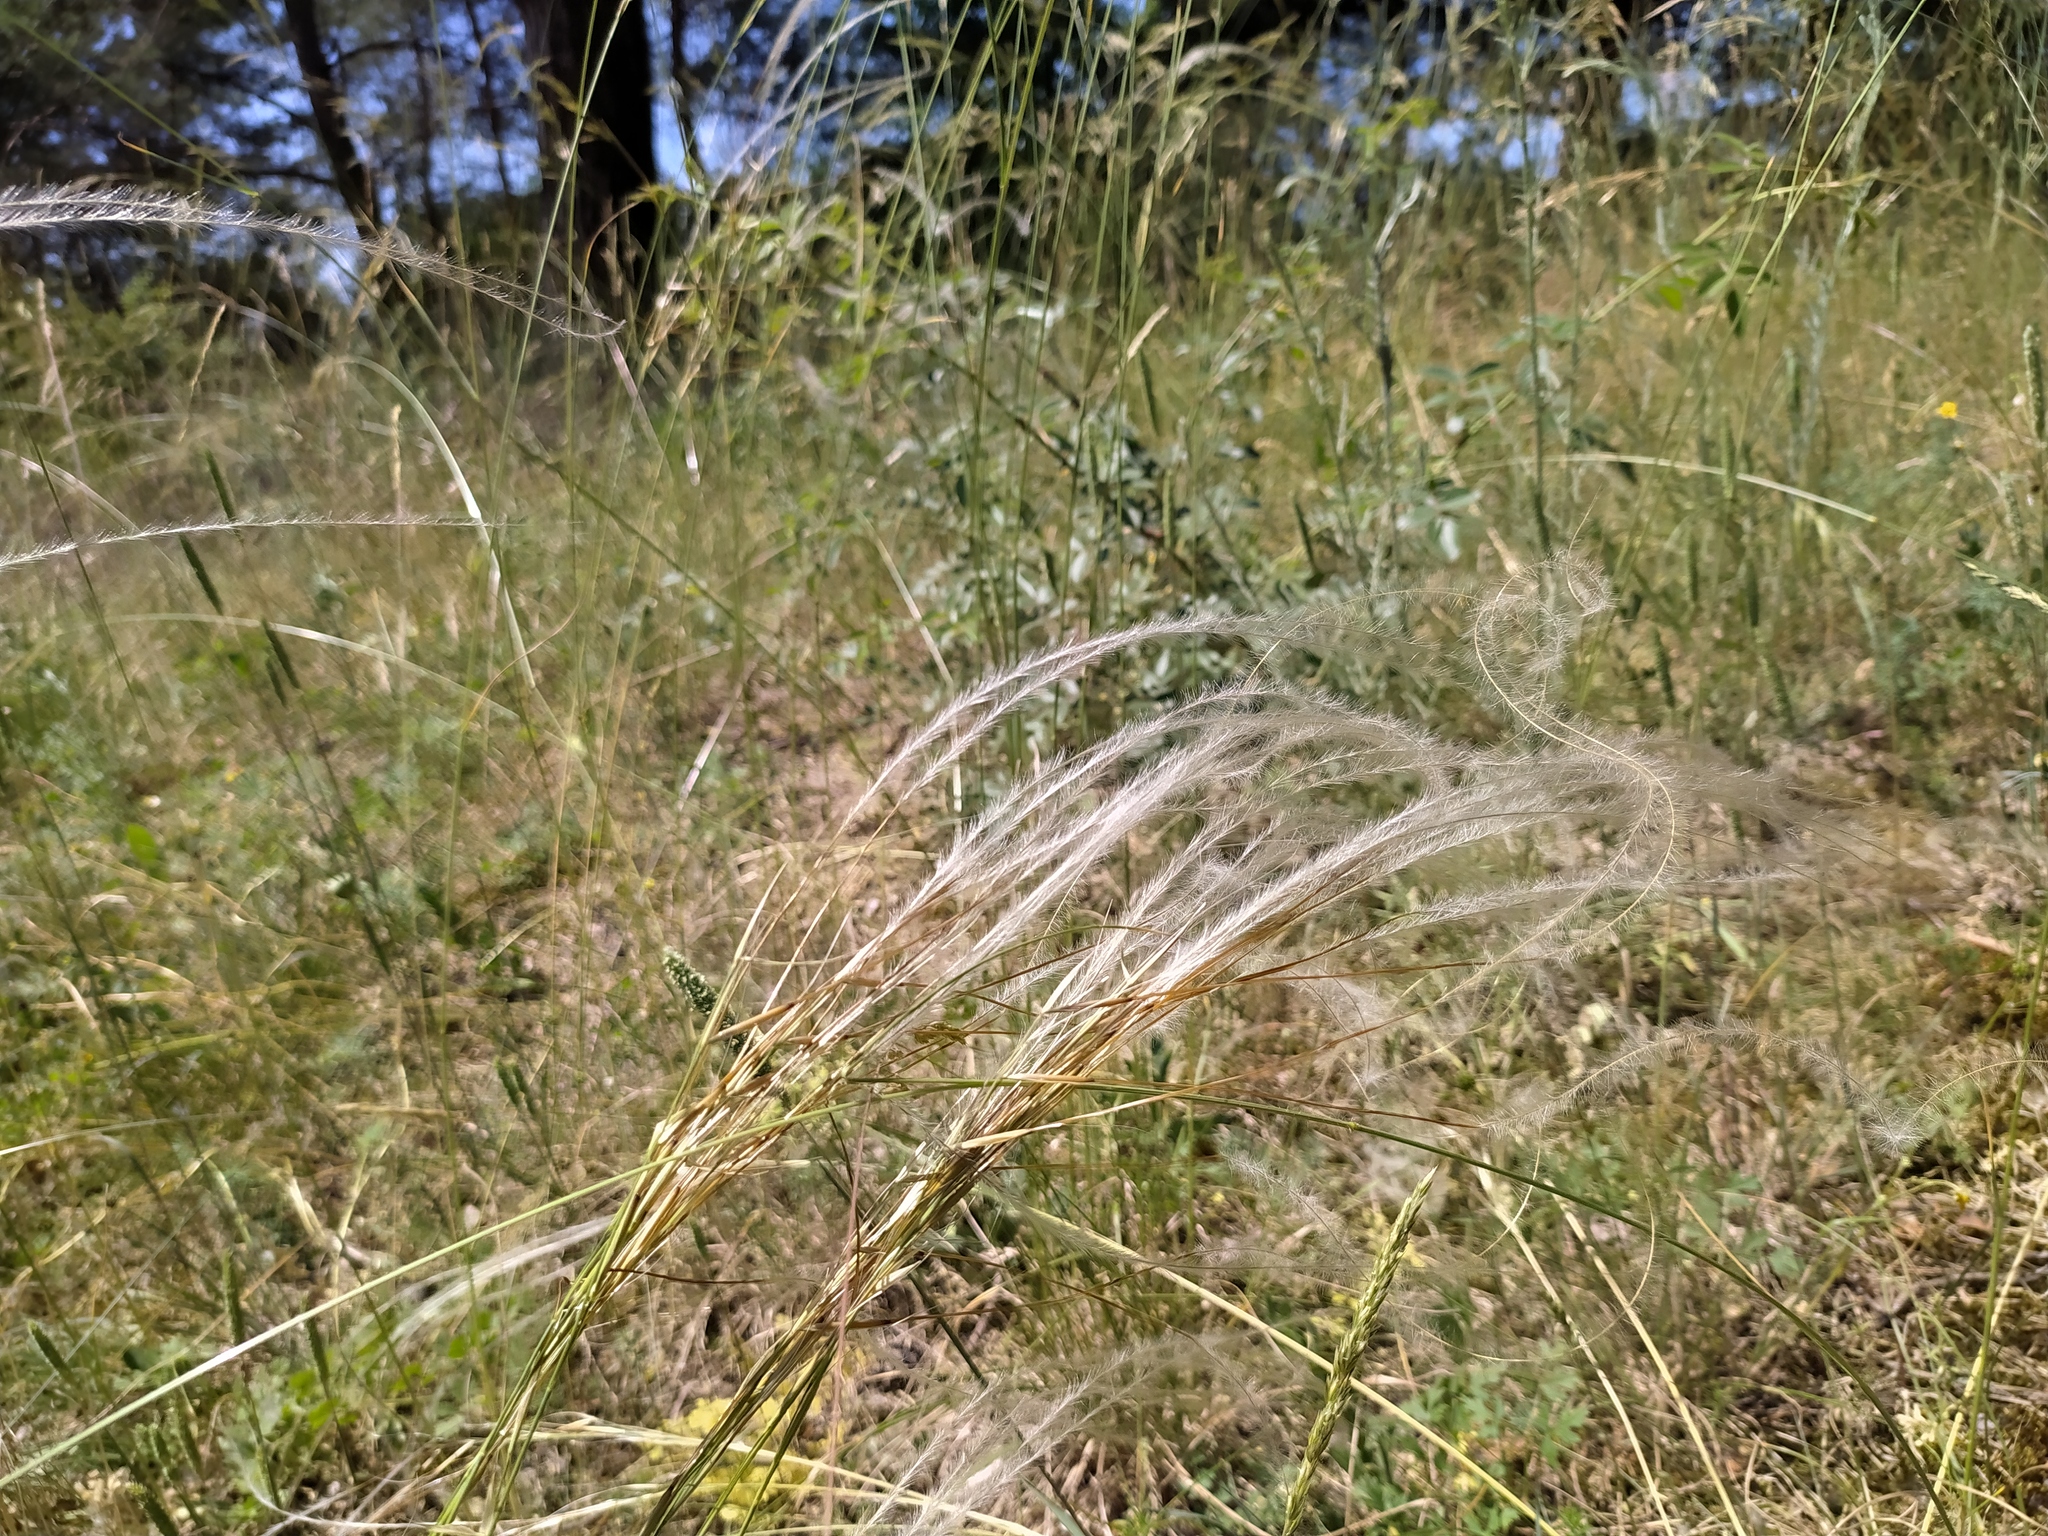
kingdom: Plantae
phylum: Tracheophyta
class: Liliopsida
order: Poales
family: Poaceae
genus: Stipa
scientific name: Stipa pennata
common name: European feather grass
